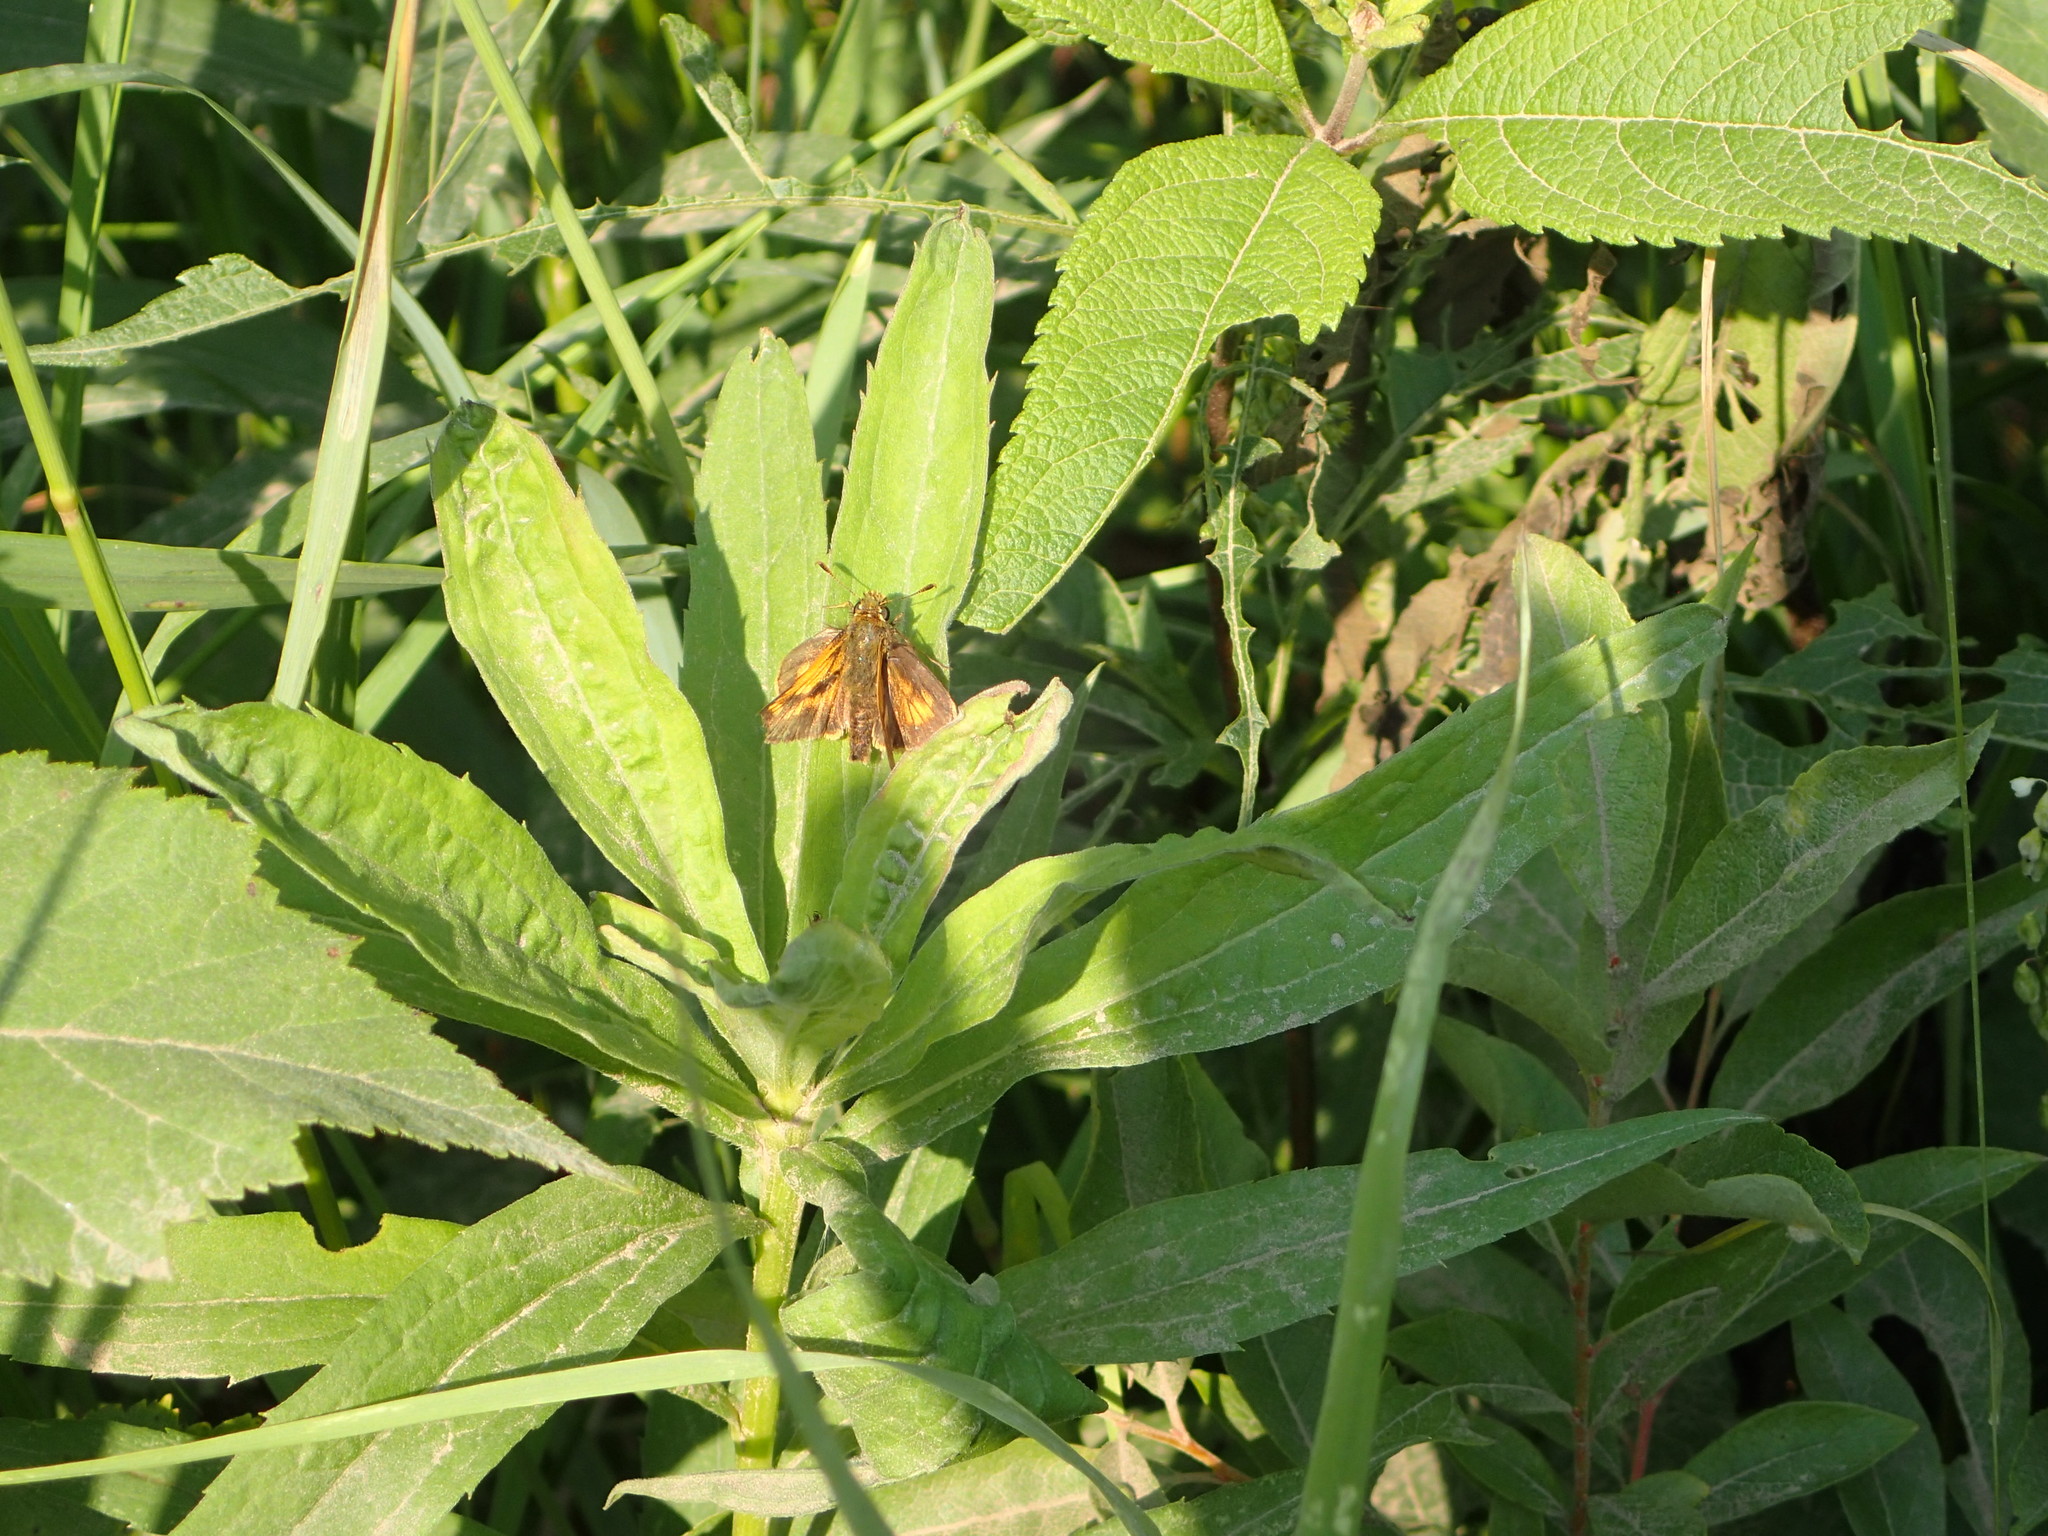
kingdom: Animalia
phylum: Arthropoda
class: Insecta
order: Lepidoptera
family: Hesperiidae
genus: Polites
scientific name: Polites mystic
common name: Long dash
